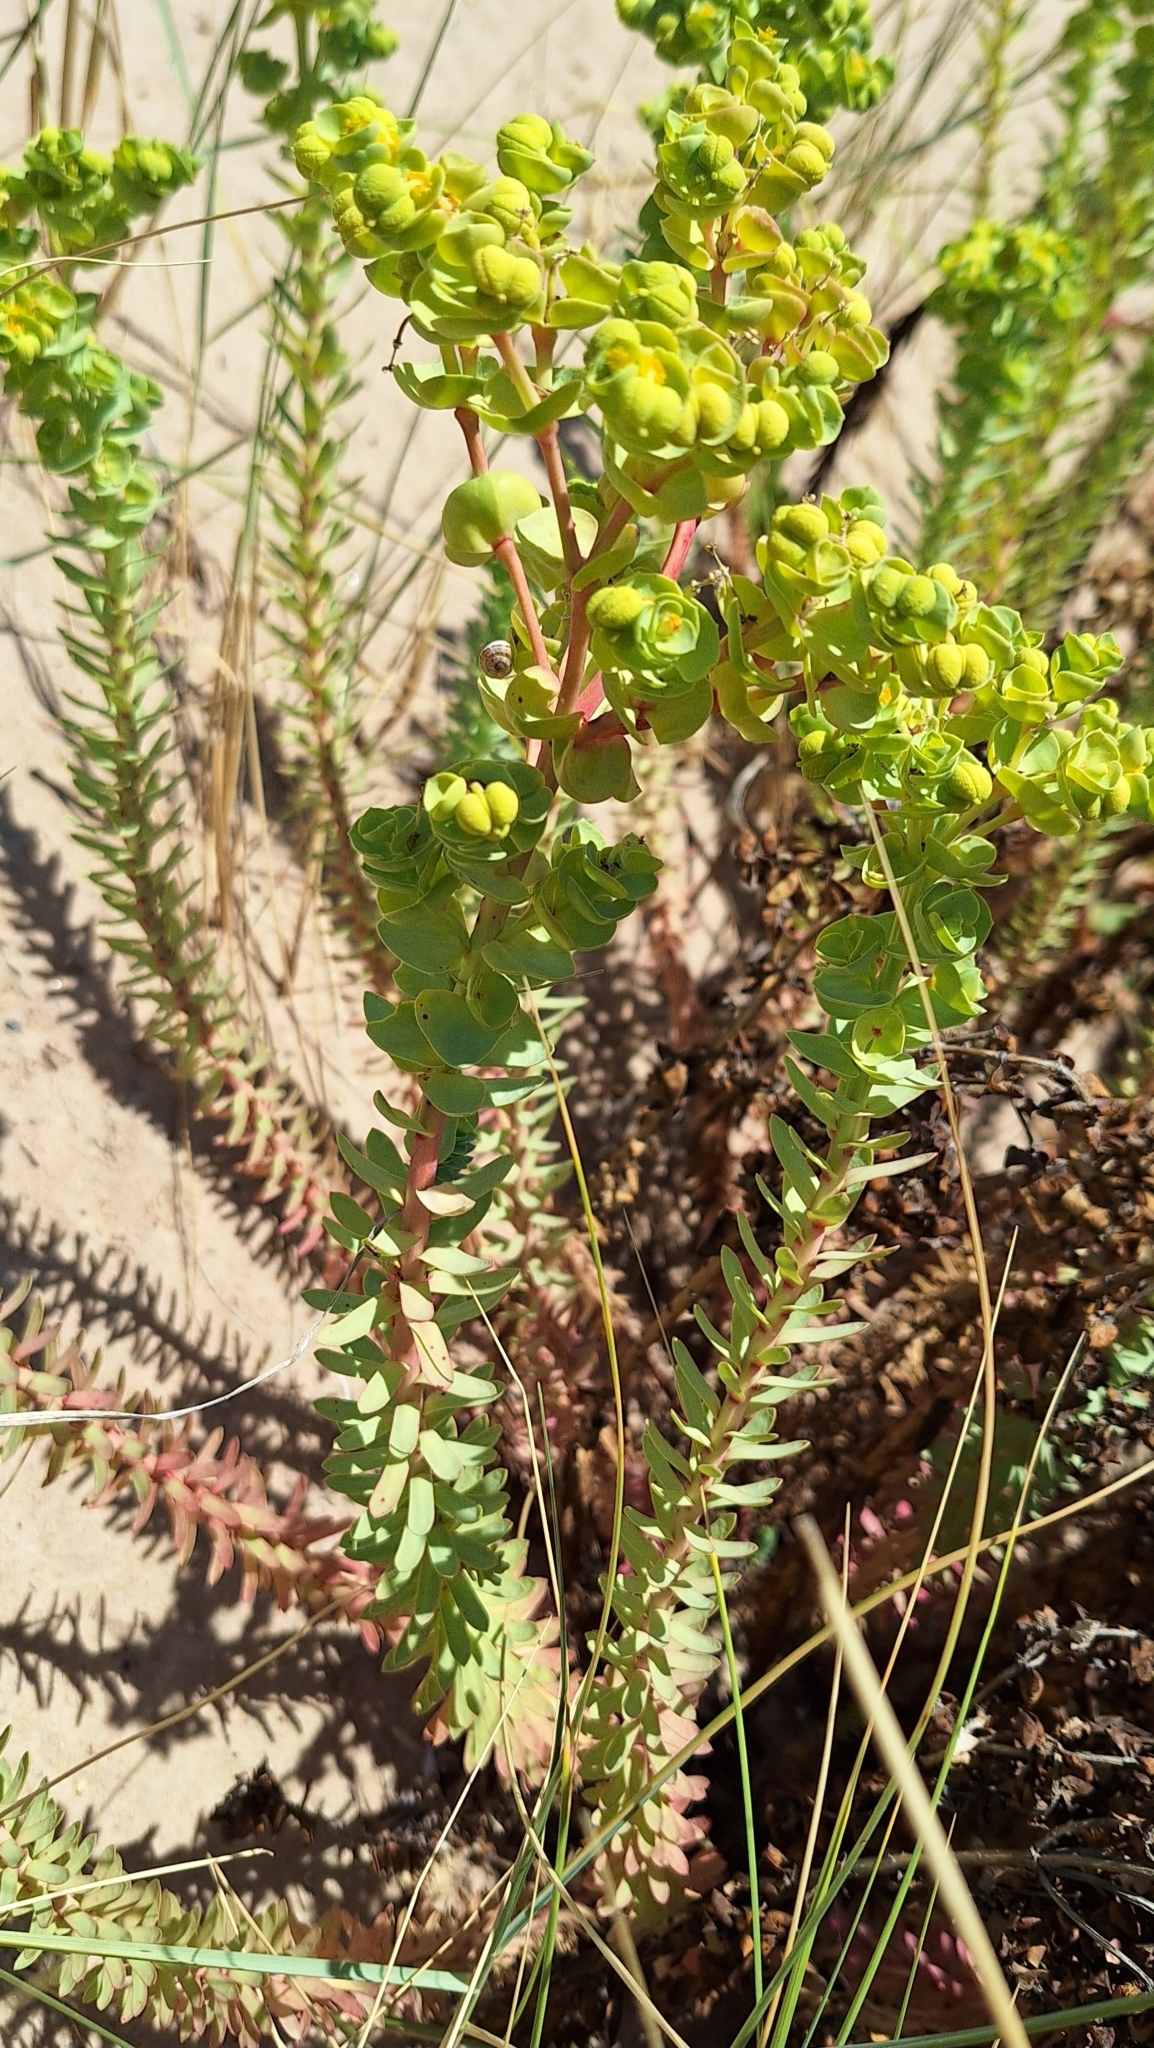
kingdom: Plantae
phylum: Tracheophyta
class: Magnoliopsida
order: Malpighiales
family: Euphorbiaceae
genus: Euphorbia
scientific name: Euphorbia paralias
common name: Sea spurge
